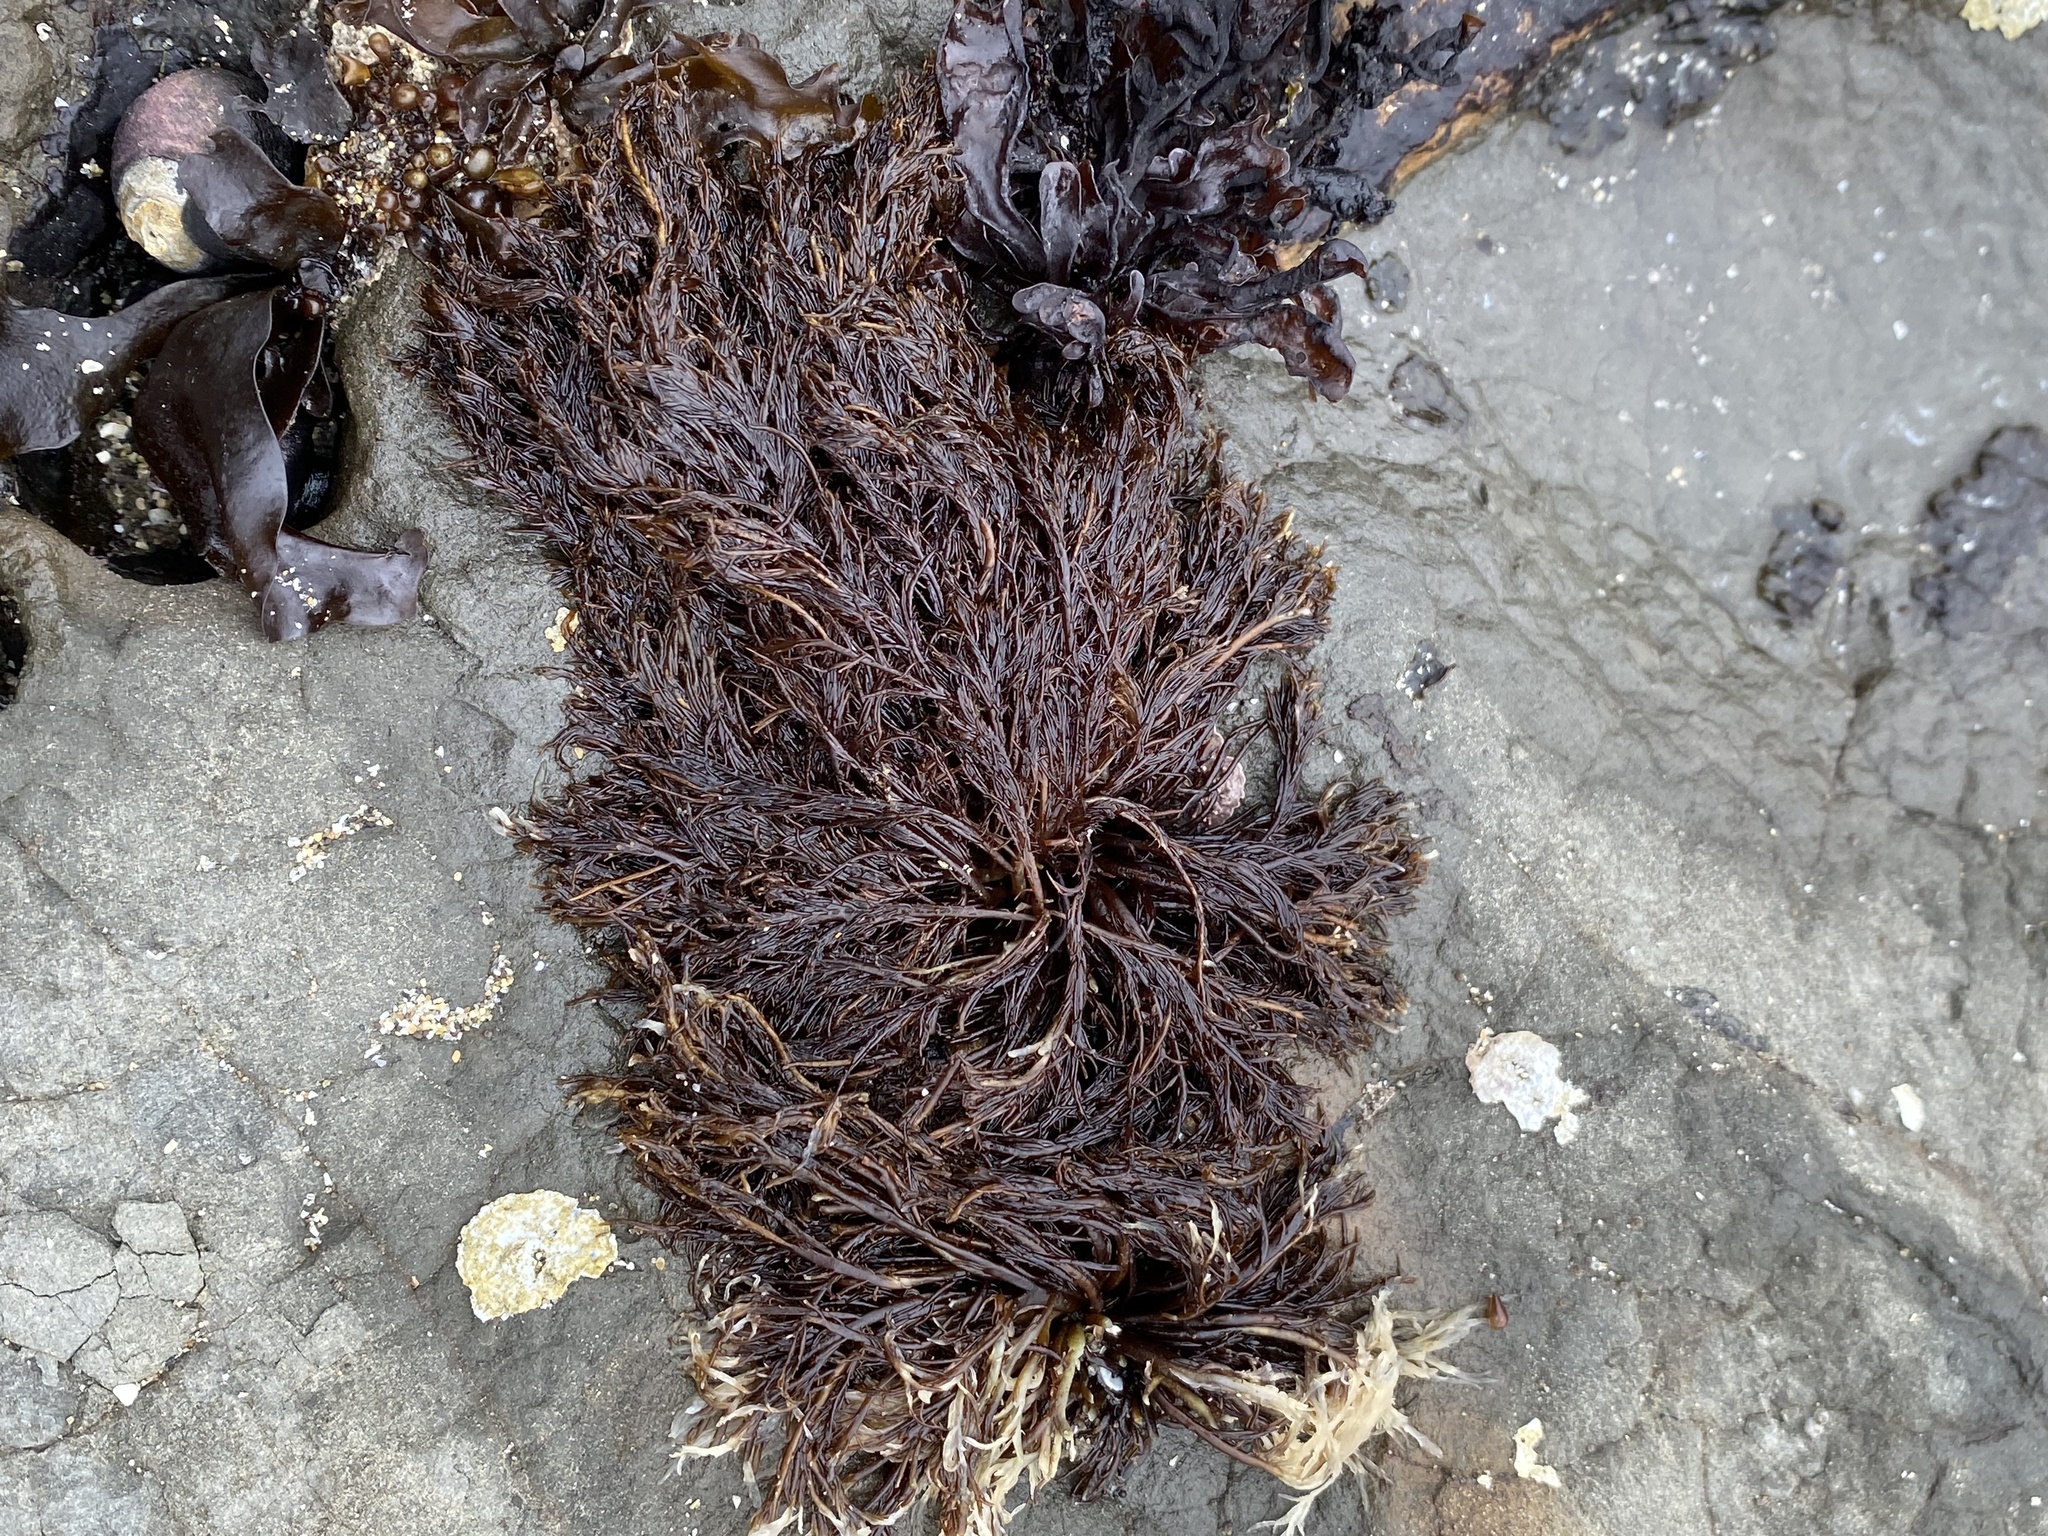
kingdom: Plantae
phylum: Rhodophyta
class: Florideophyceae
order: Gigartinales
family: Dumontiaceae
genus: Cryptosiphonia
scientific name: Cryptosiphonia woodii
